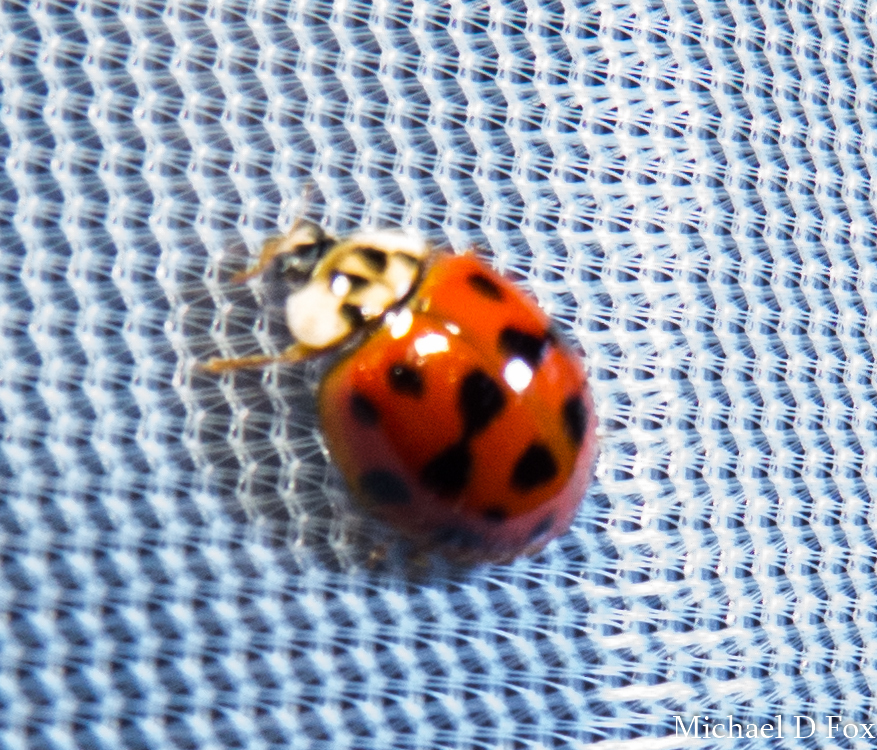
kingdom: Animalia
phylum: Arthropoda
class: Insecta
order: Coleoptera
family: Coccinellidae
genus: Harmonia
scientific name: Harmonia axyridis
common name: Harlequin ladybird
